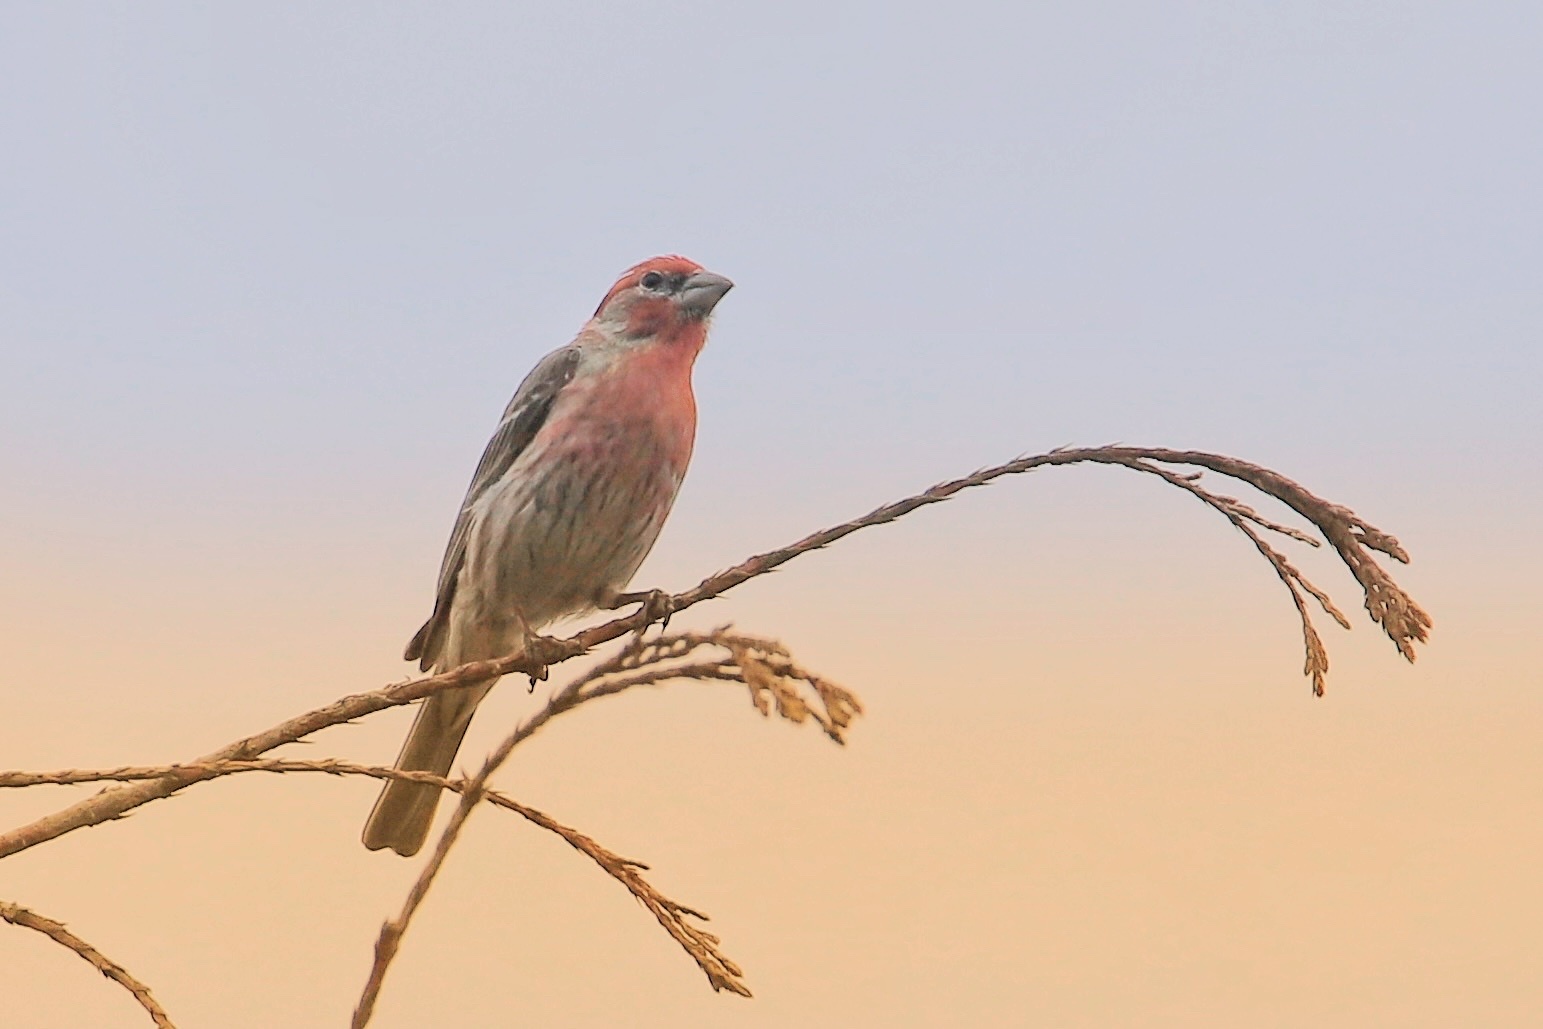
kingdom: Animalia
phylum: Chordata
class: Aves
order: Passeriformes
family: Fringillidae
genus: Haemorhous
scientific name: Haemorhous mexicanus
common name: House finch
